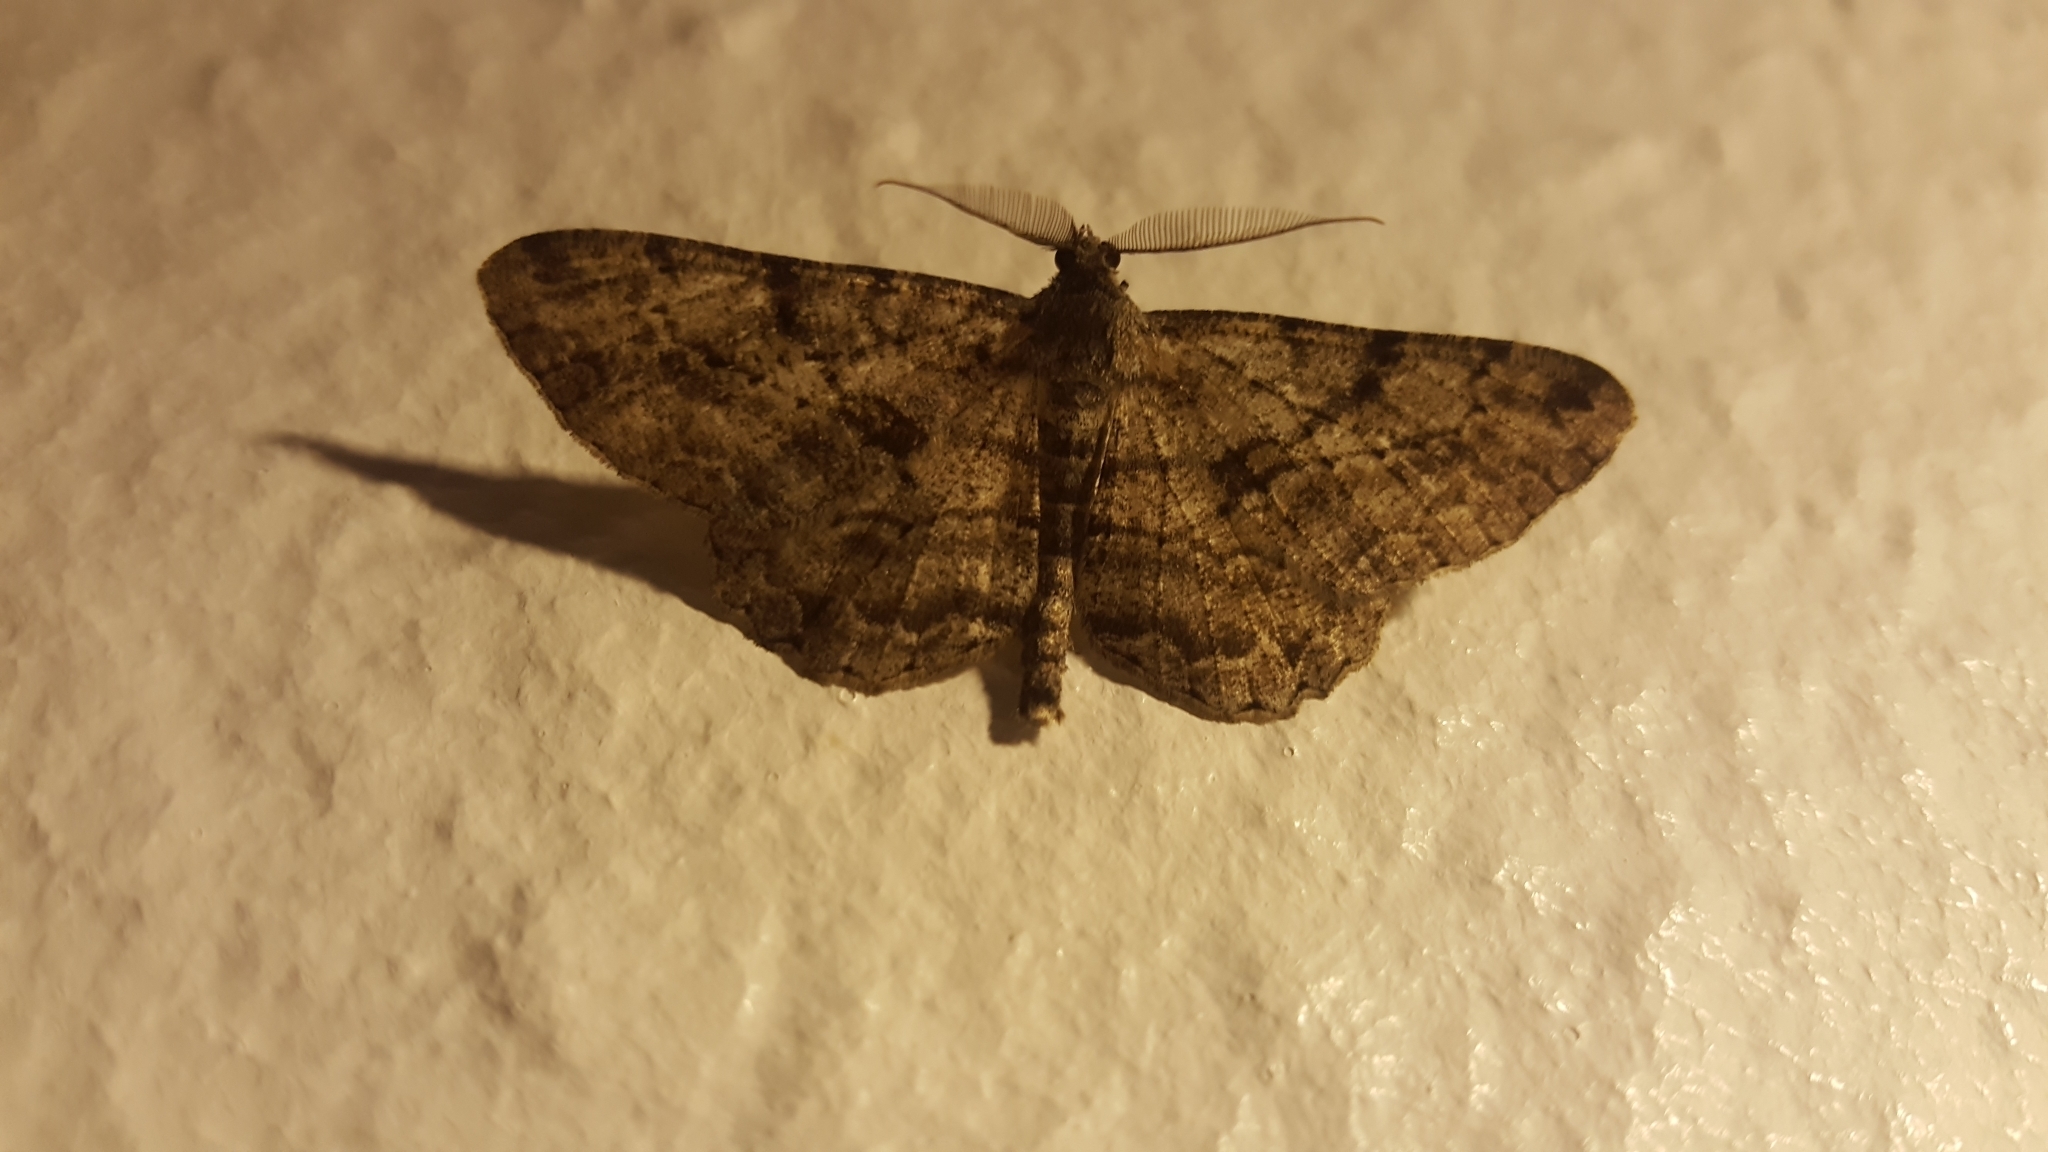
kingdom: Animalia
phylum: Arthropoda
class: Insecta
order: Lepidoptera
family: Geometridae
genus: Peribatodes
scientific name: Peribatodes rhomboidaria
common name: Willow beauty
